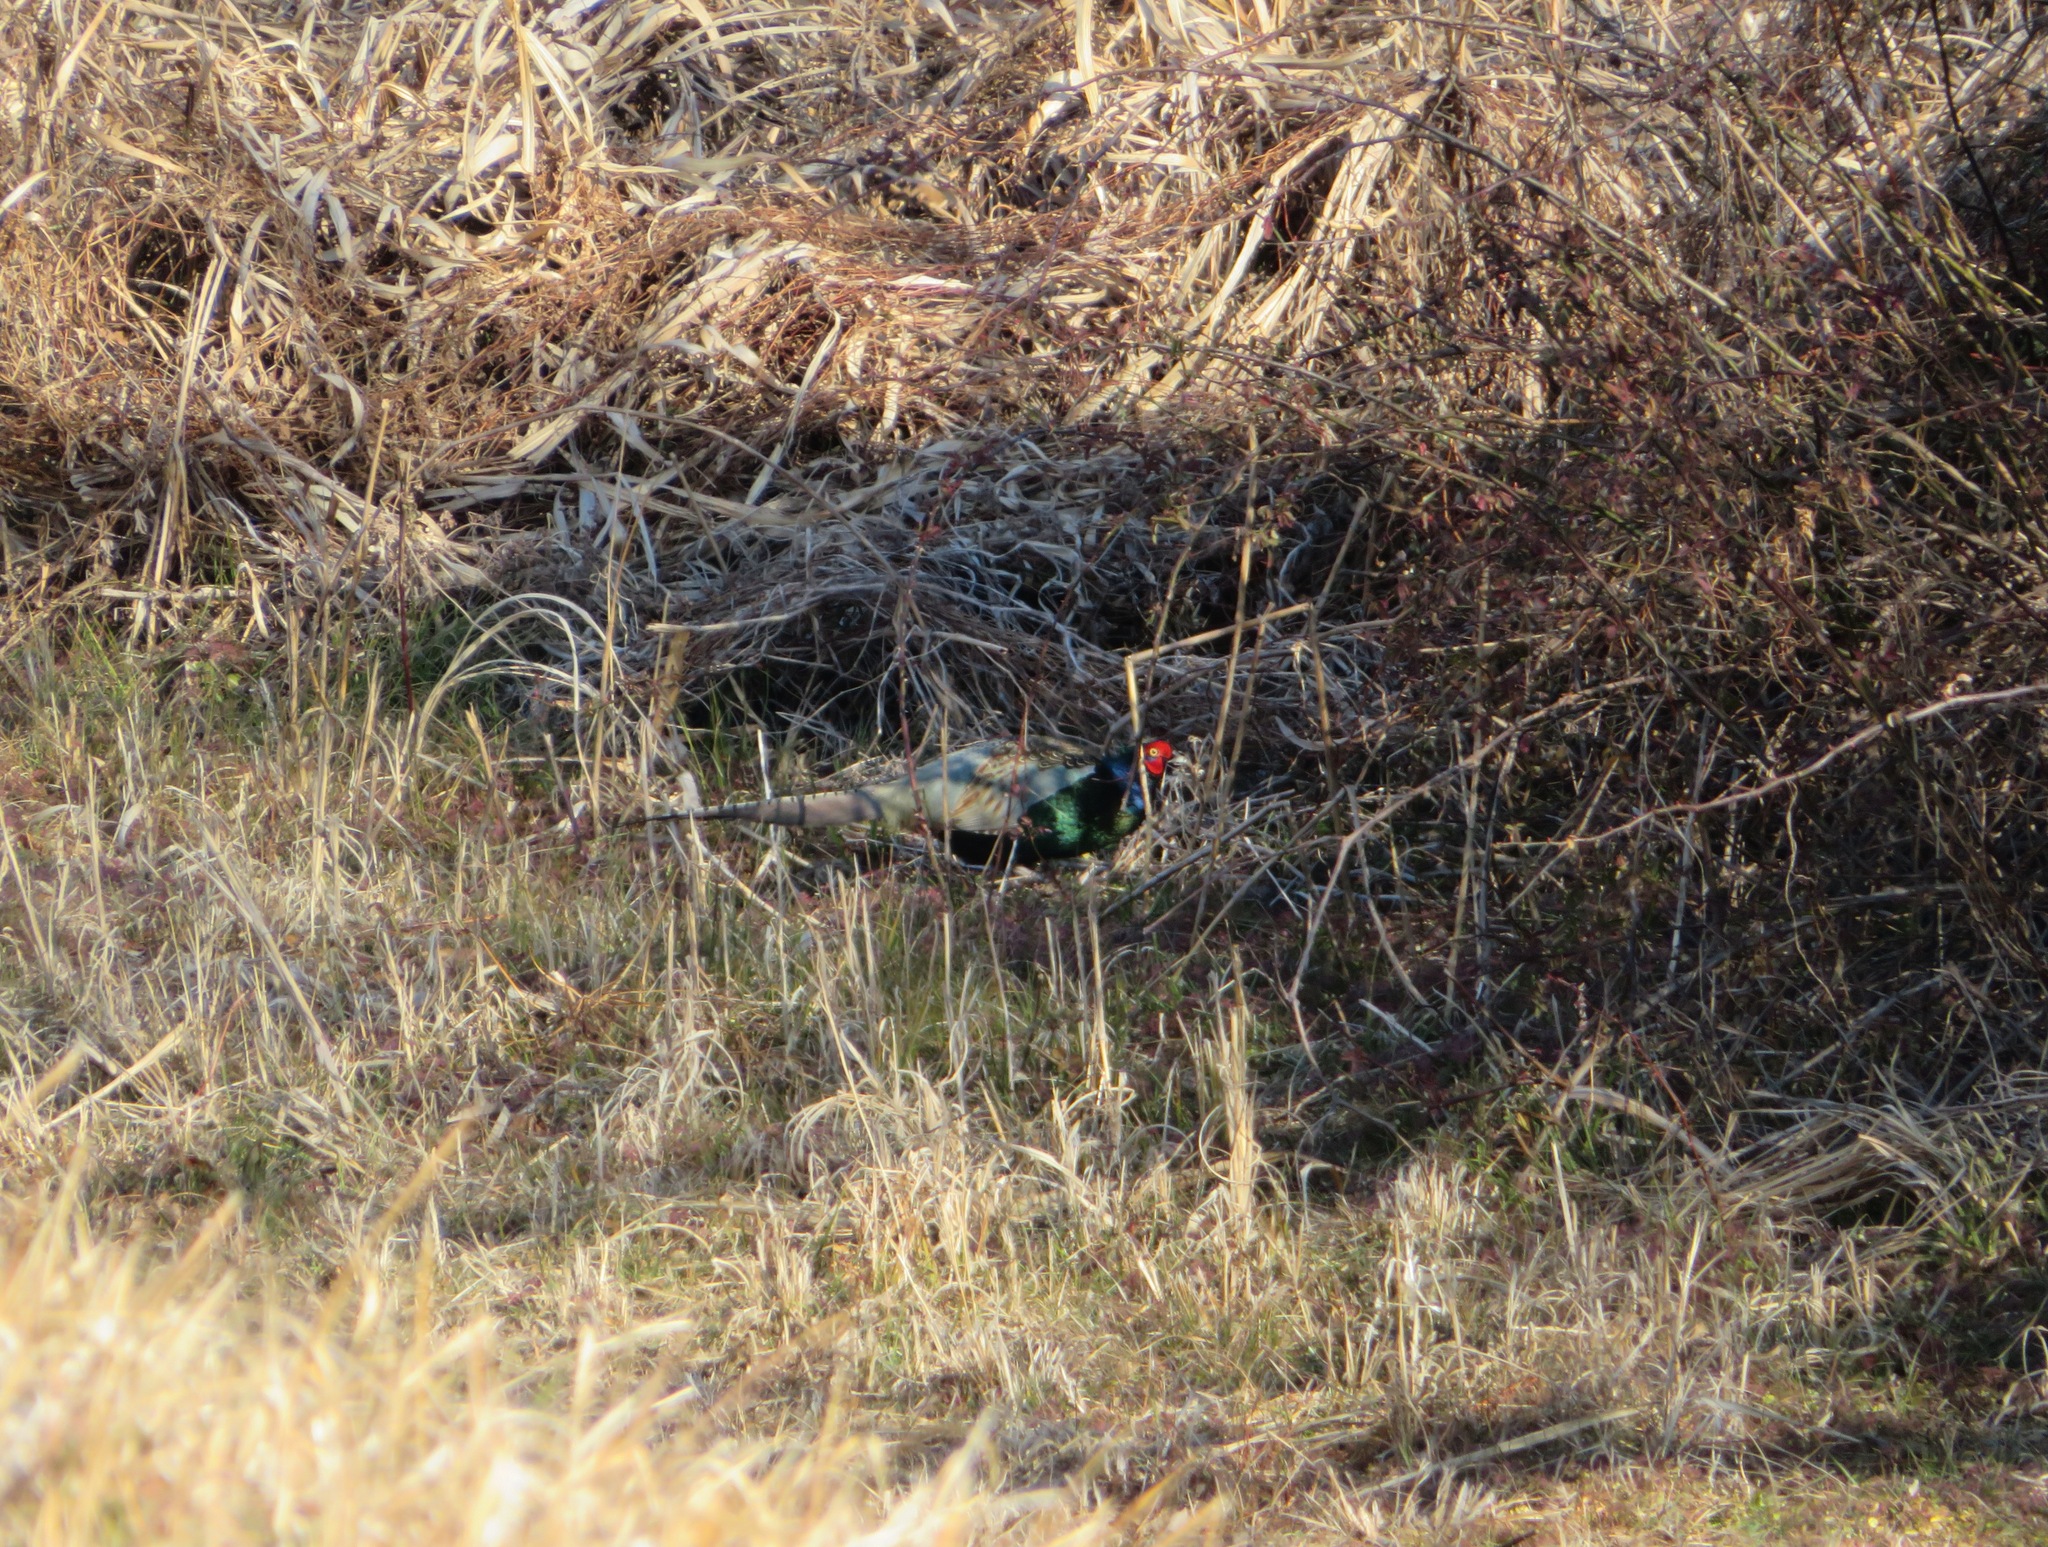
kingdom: Animalia
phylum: Chordata
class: Aves
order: Galliformes
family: Phasianidae
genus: Phasianus
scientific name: Phasianus versicolor
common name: Green pheasant
